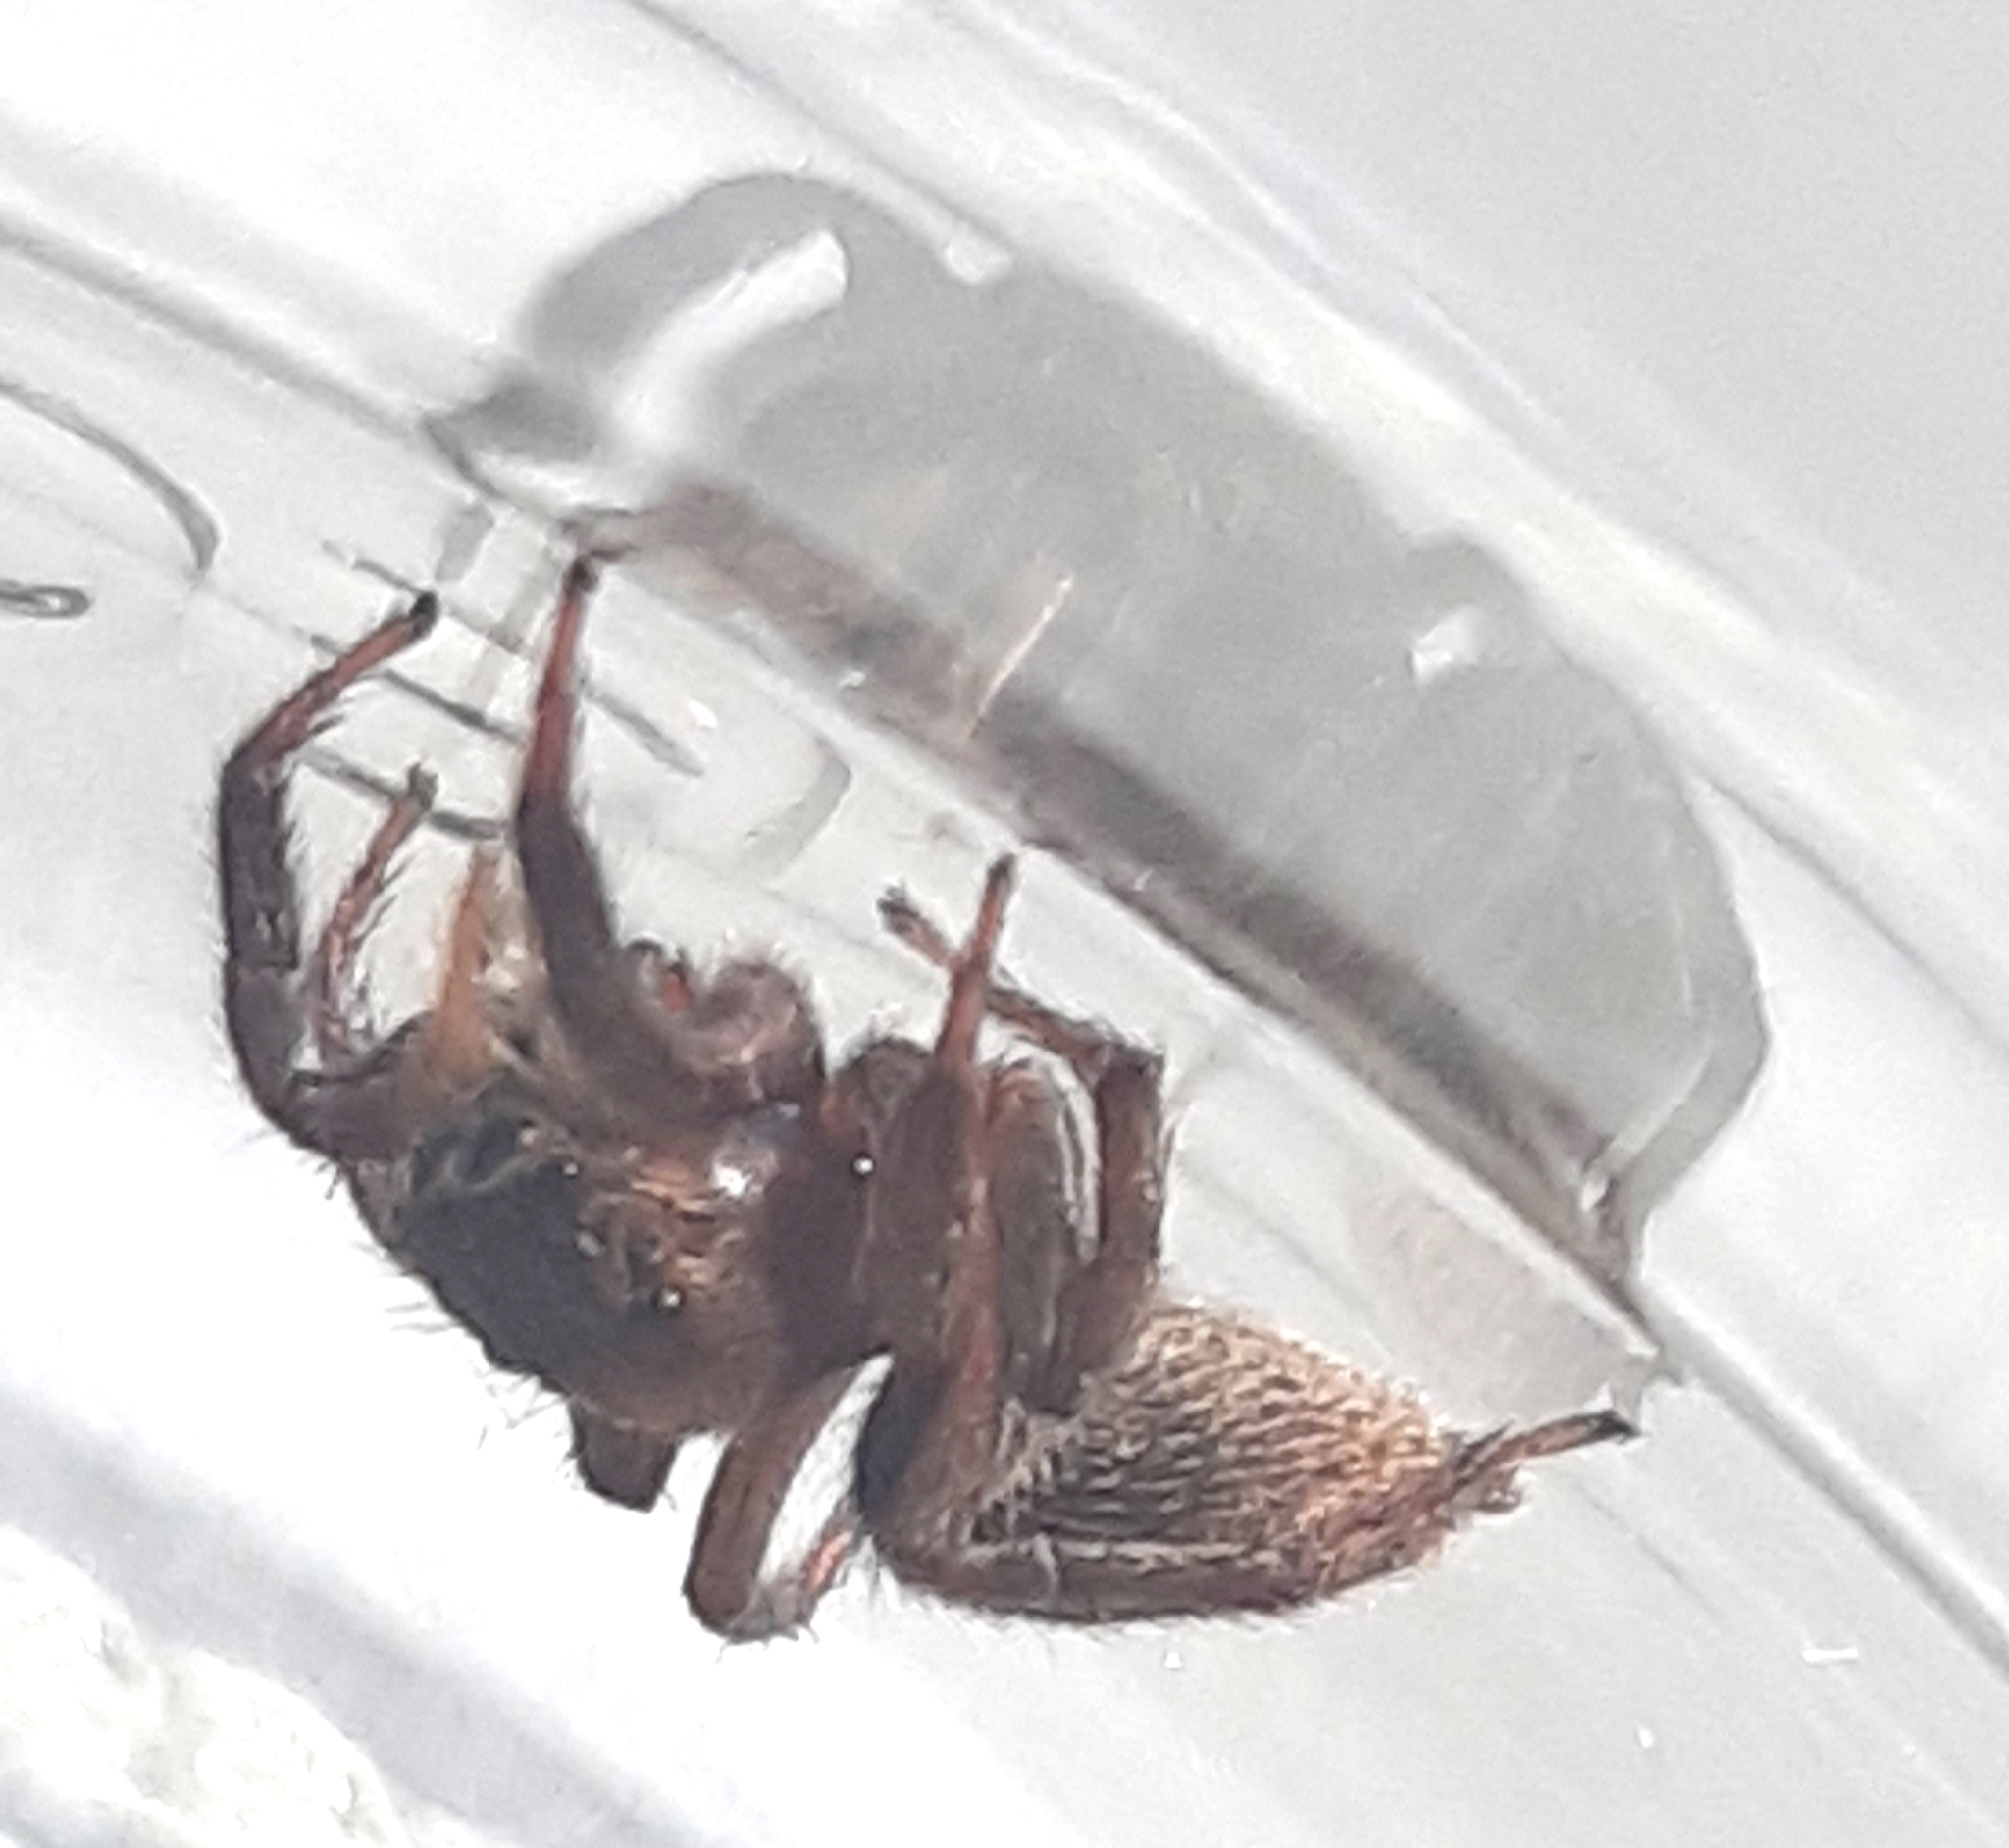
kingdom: Animalia
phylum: Arthropoda
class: Arachnida
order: Araneae
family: Salticidae
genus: Hasarius
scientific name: Hasarius adansoni
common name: Jumping spider
